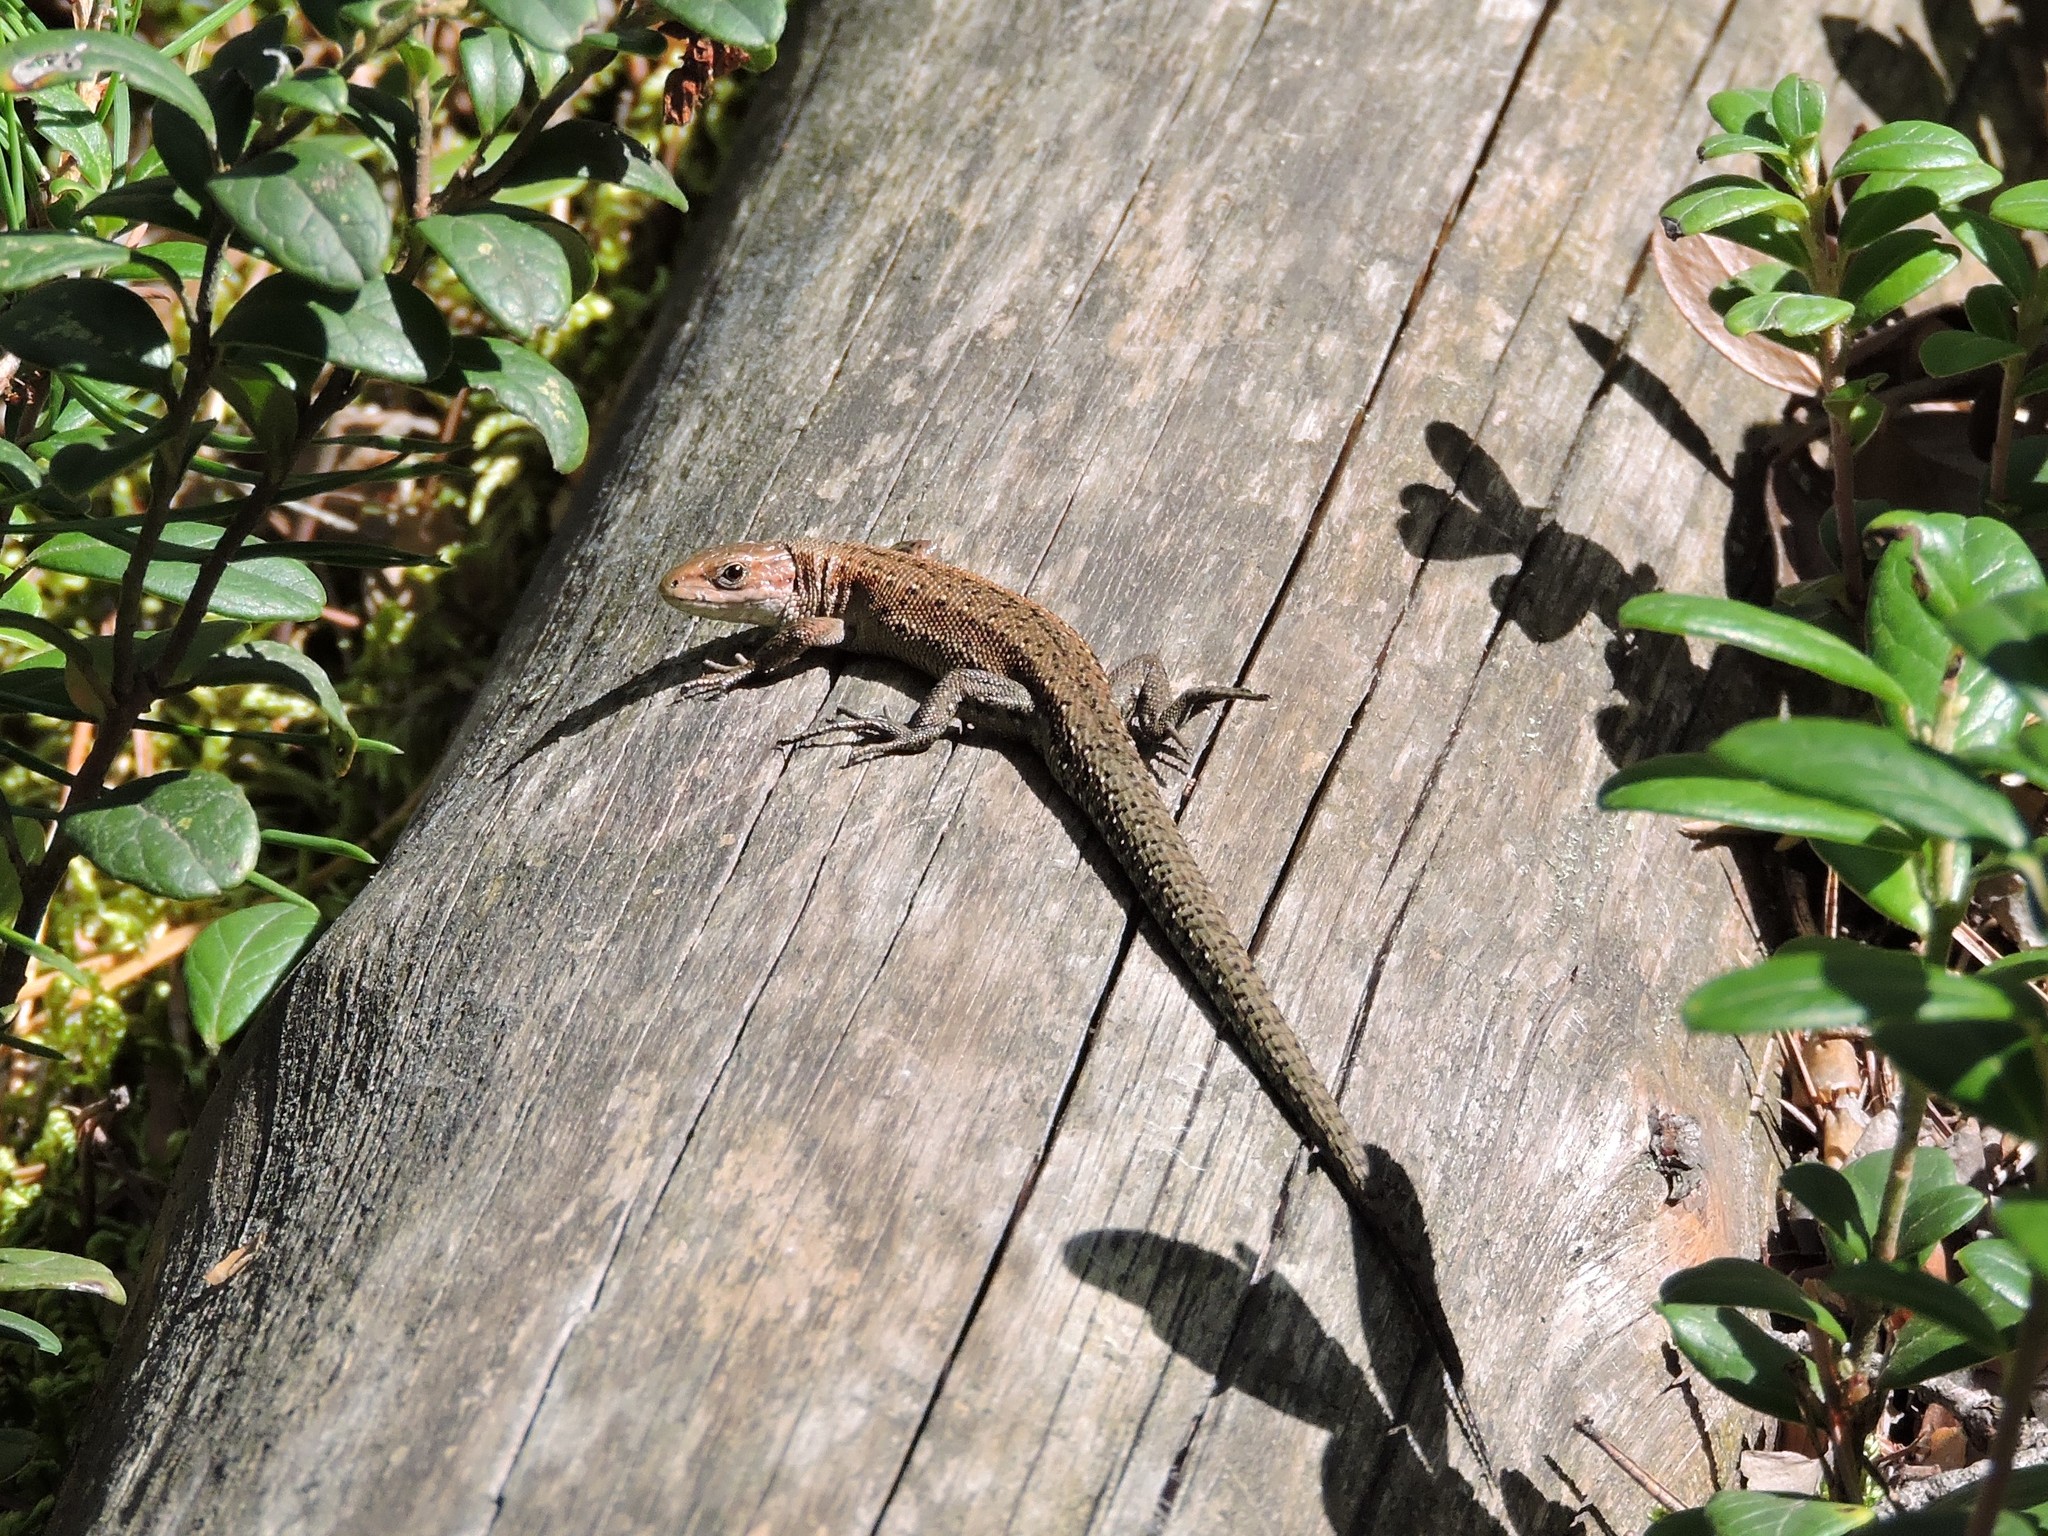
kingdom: Animalia
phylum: Chordata
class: Squamata
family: Lacertidae
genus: Zootoca
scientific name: Zootoca vivipara
